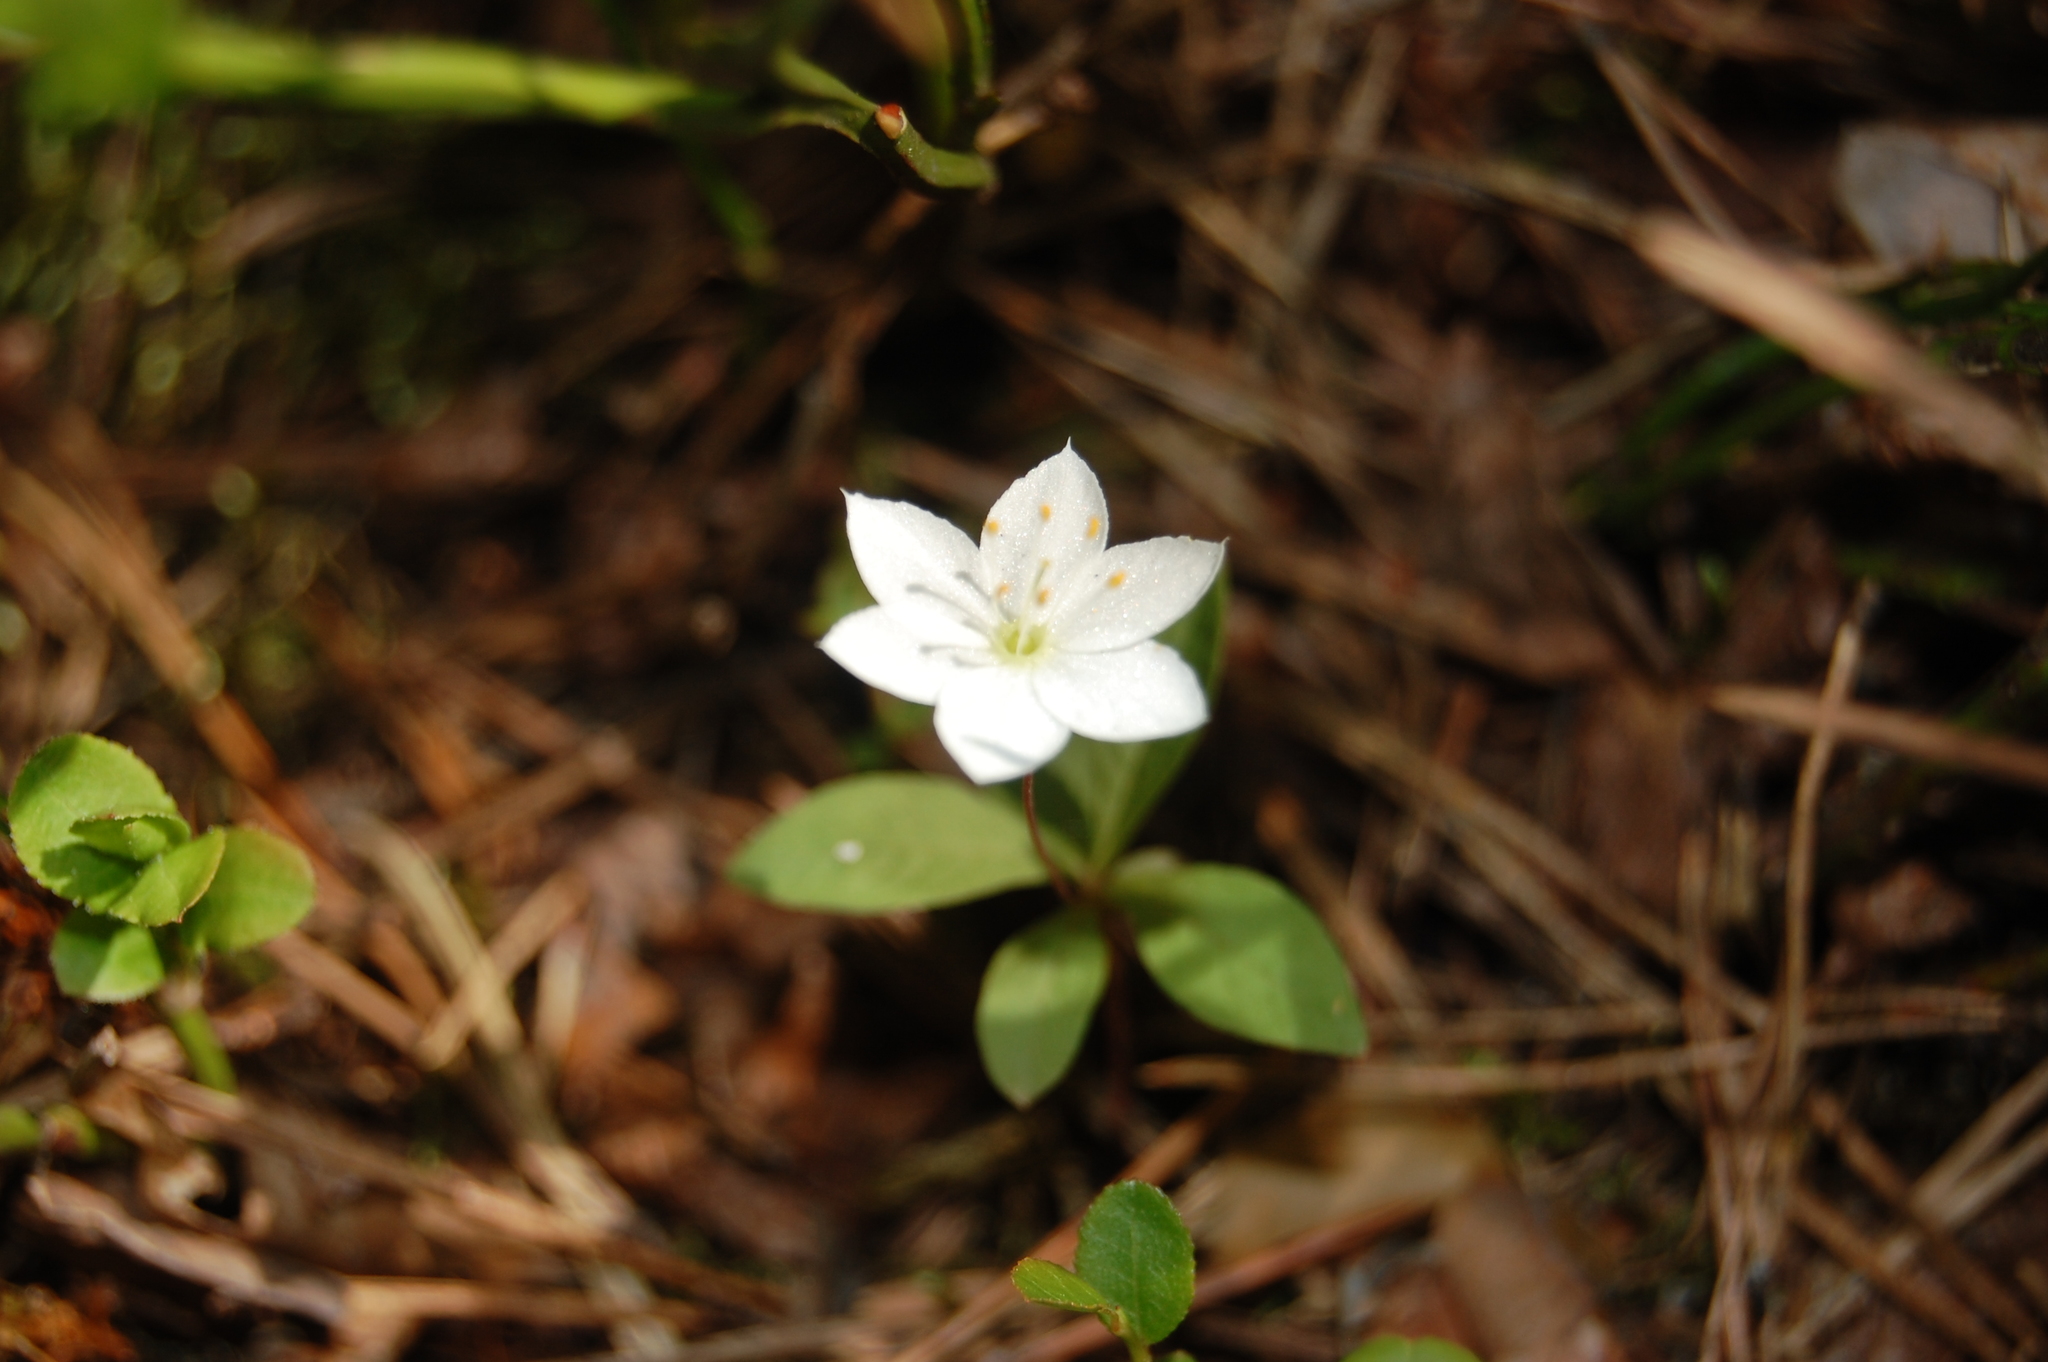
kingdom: Plantae
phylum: Tracheophyta
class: Magnoliopsida
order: Ericales
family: Primulaceae
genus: Lysimachia
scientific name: Lysimachia europaea
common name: Arctic starflower
